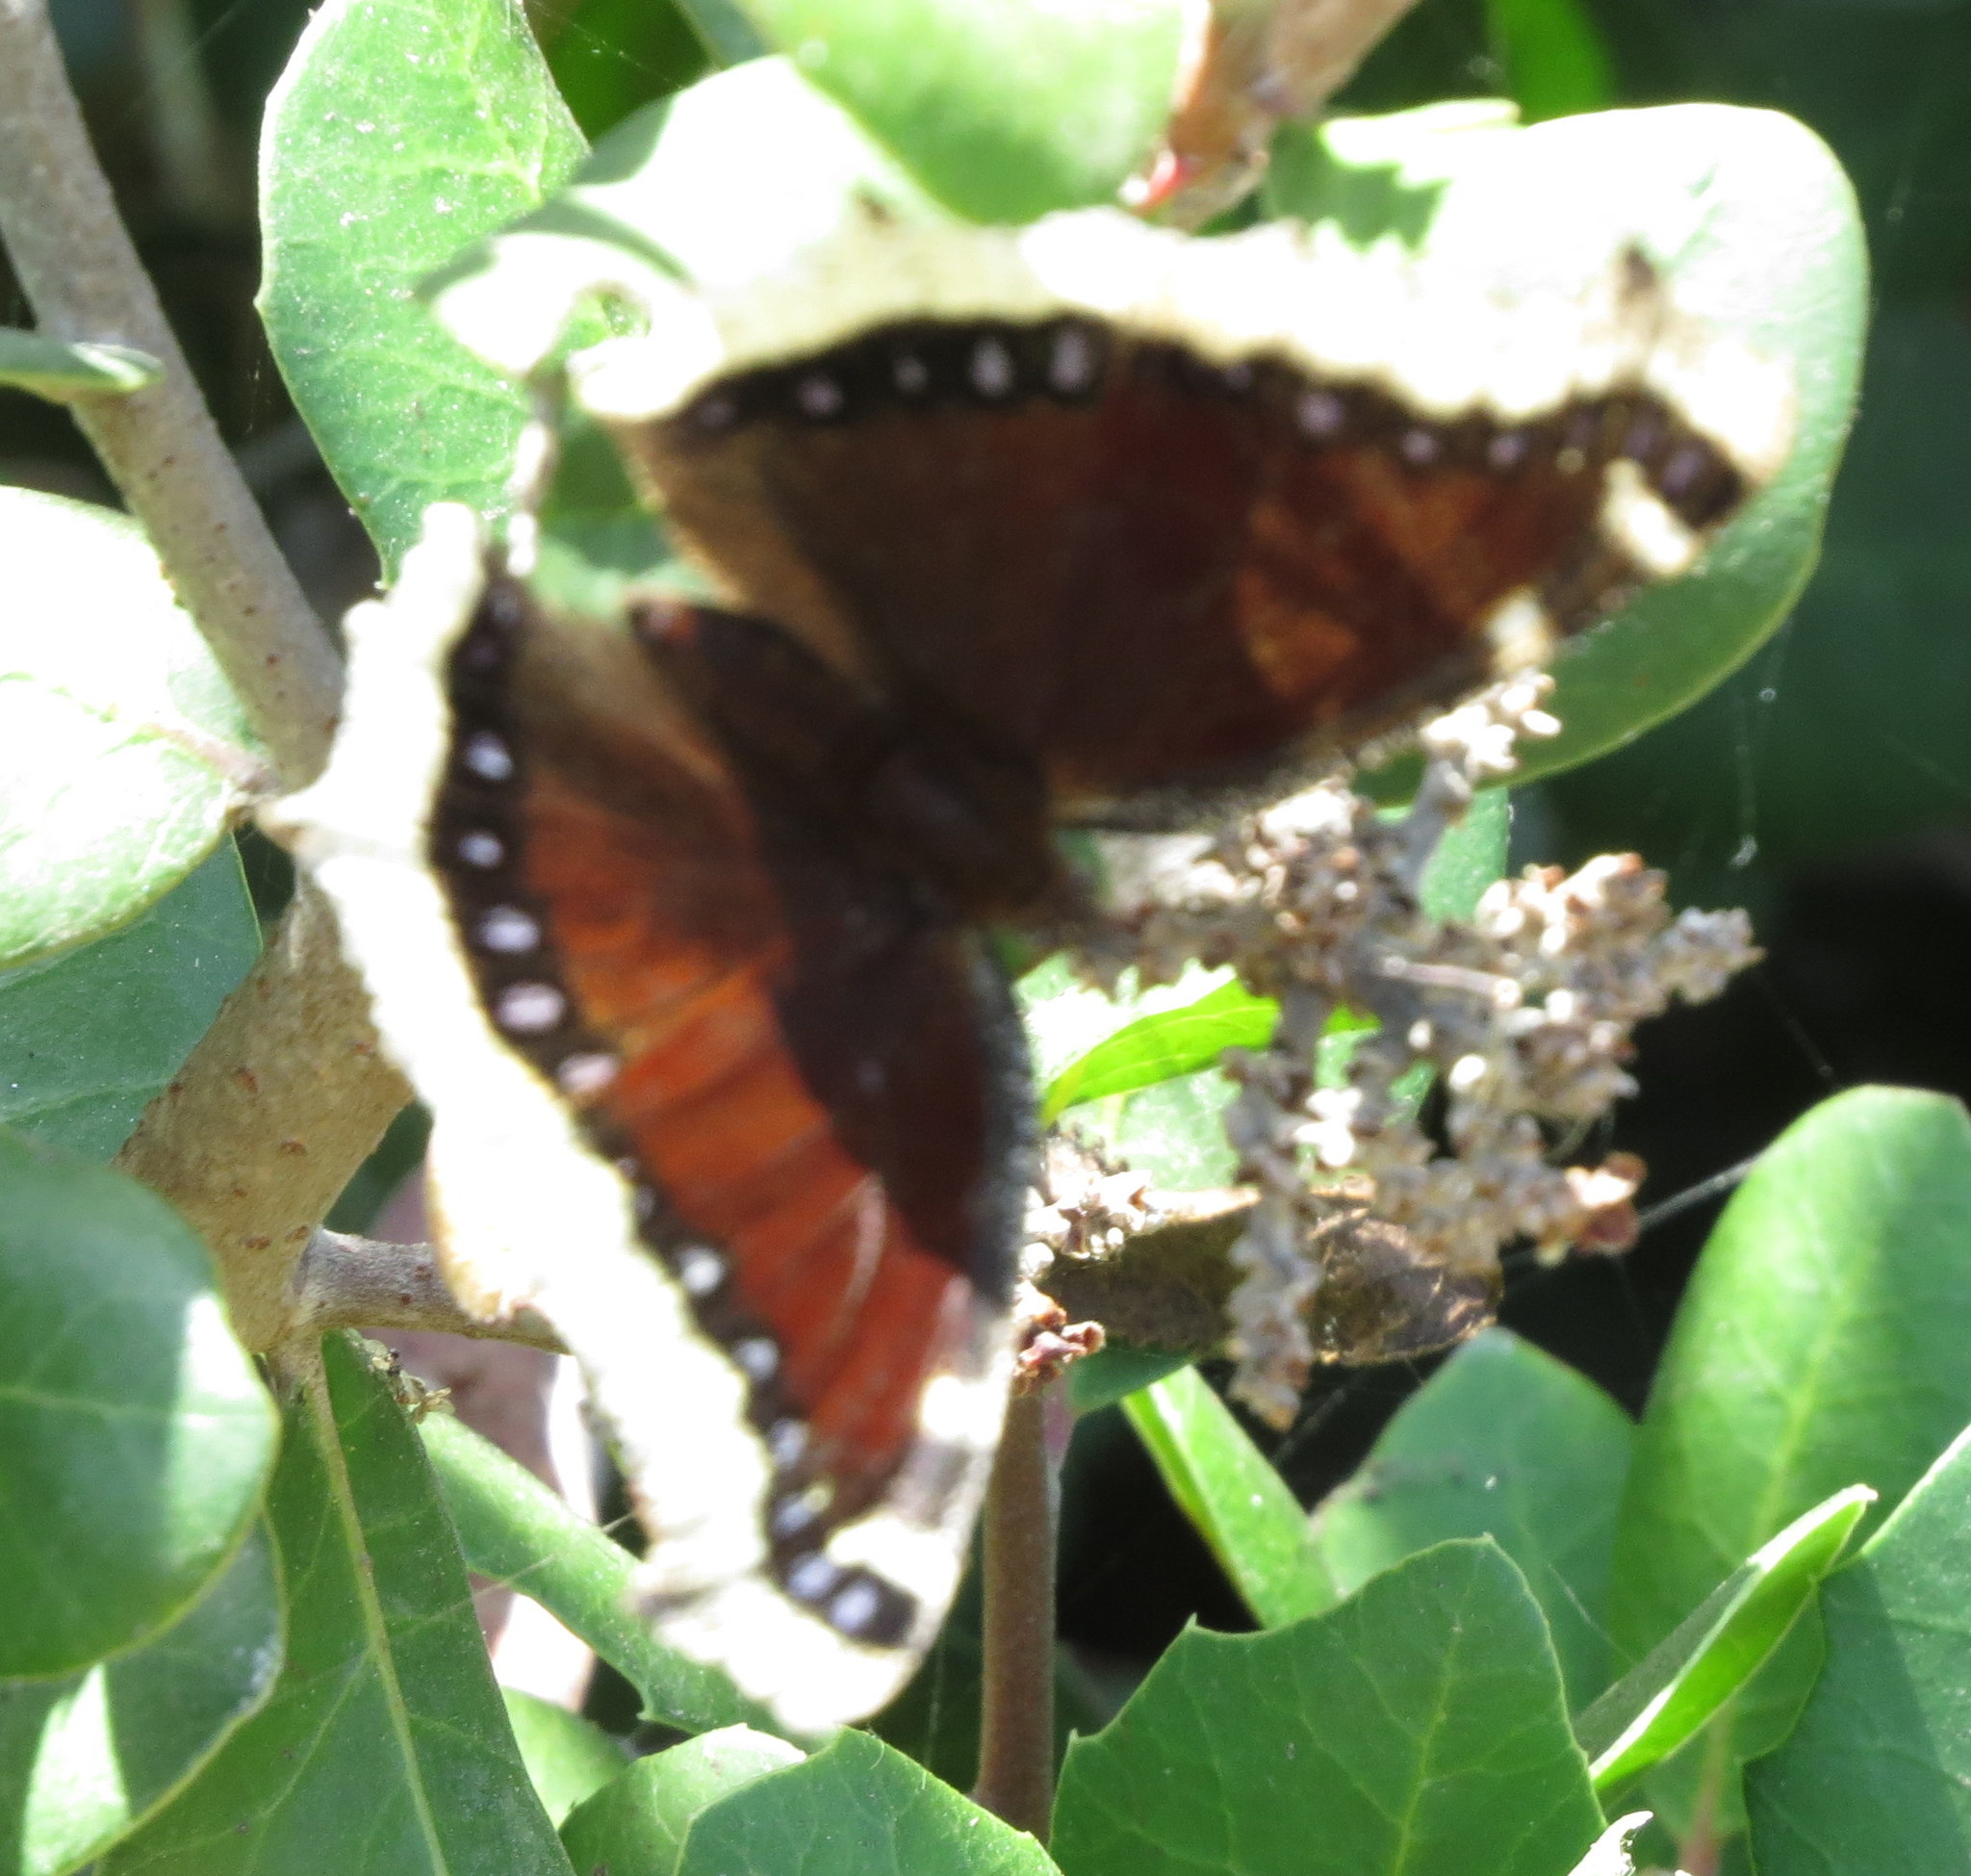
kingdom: Animalia
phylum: Arthropoda
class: Insecta
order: Lepidoptera
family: Nymphalidae
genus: Nymphalis
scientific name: Nymphalis antiopa
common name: Camberwell beauty
